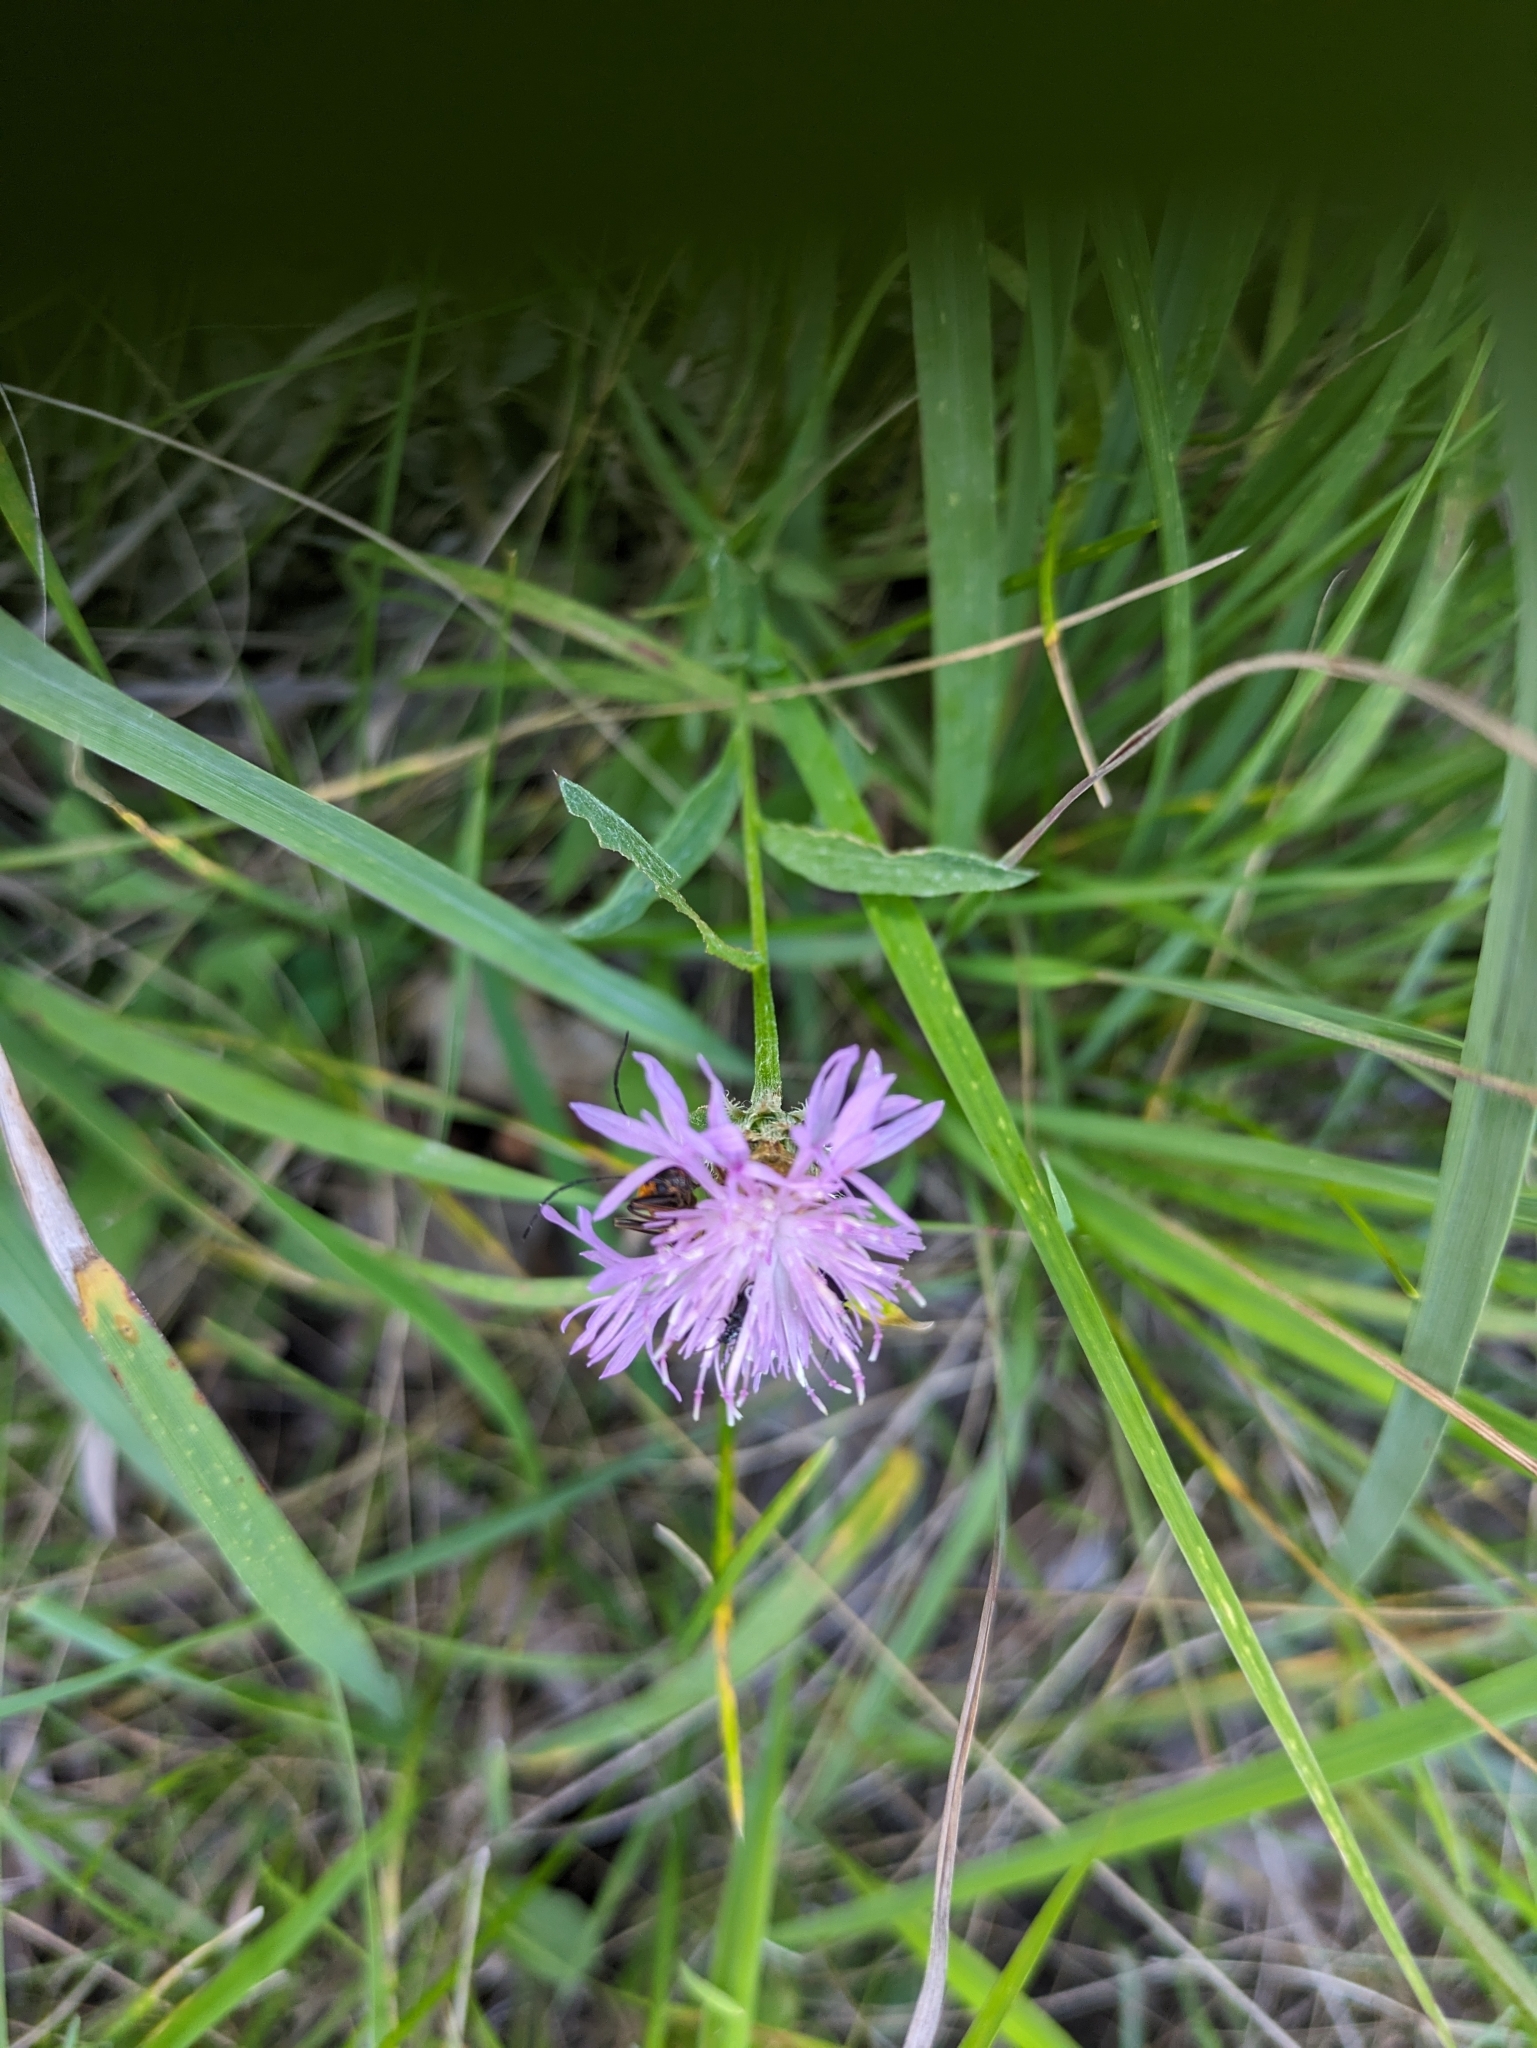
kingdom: Plantae
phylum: Tracheophyta
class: Magnoliopsida
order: Asterales
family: Asteraceae
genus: Centaurea
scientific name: Centaurea stoebe
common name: Spotted knapweed
